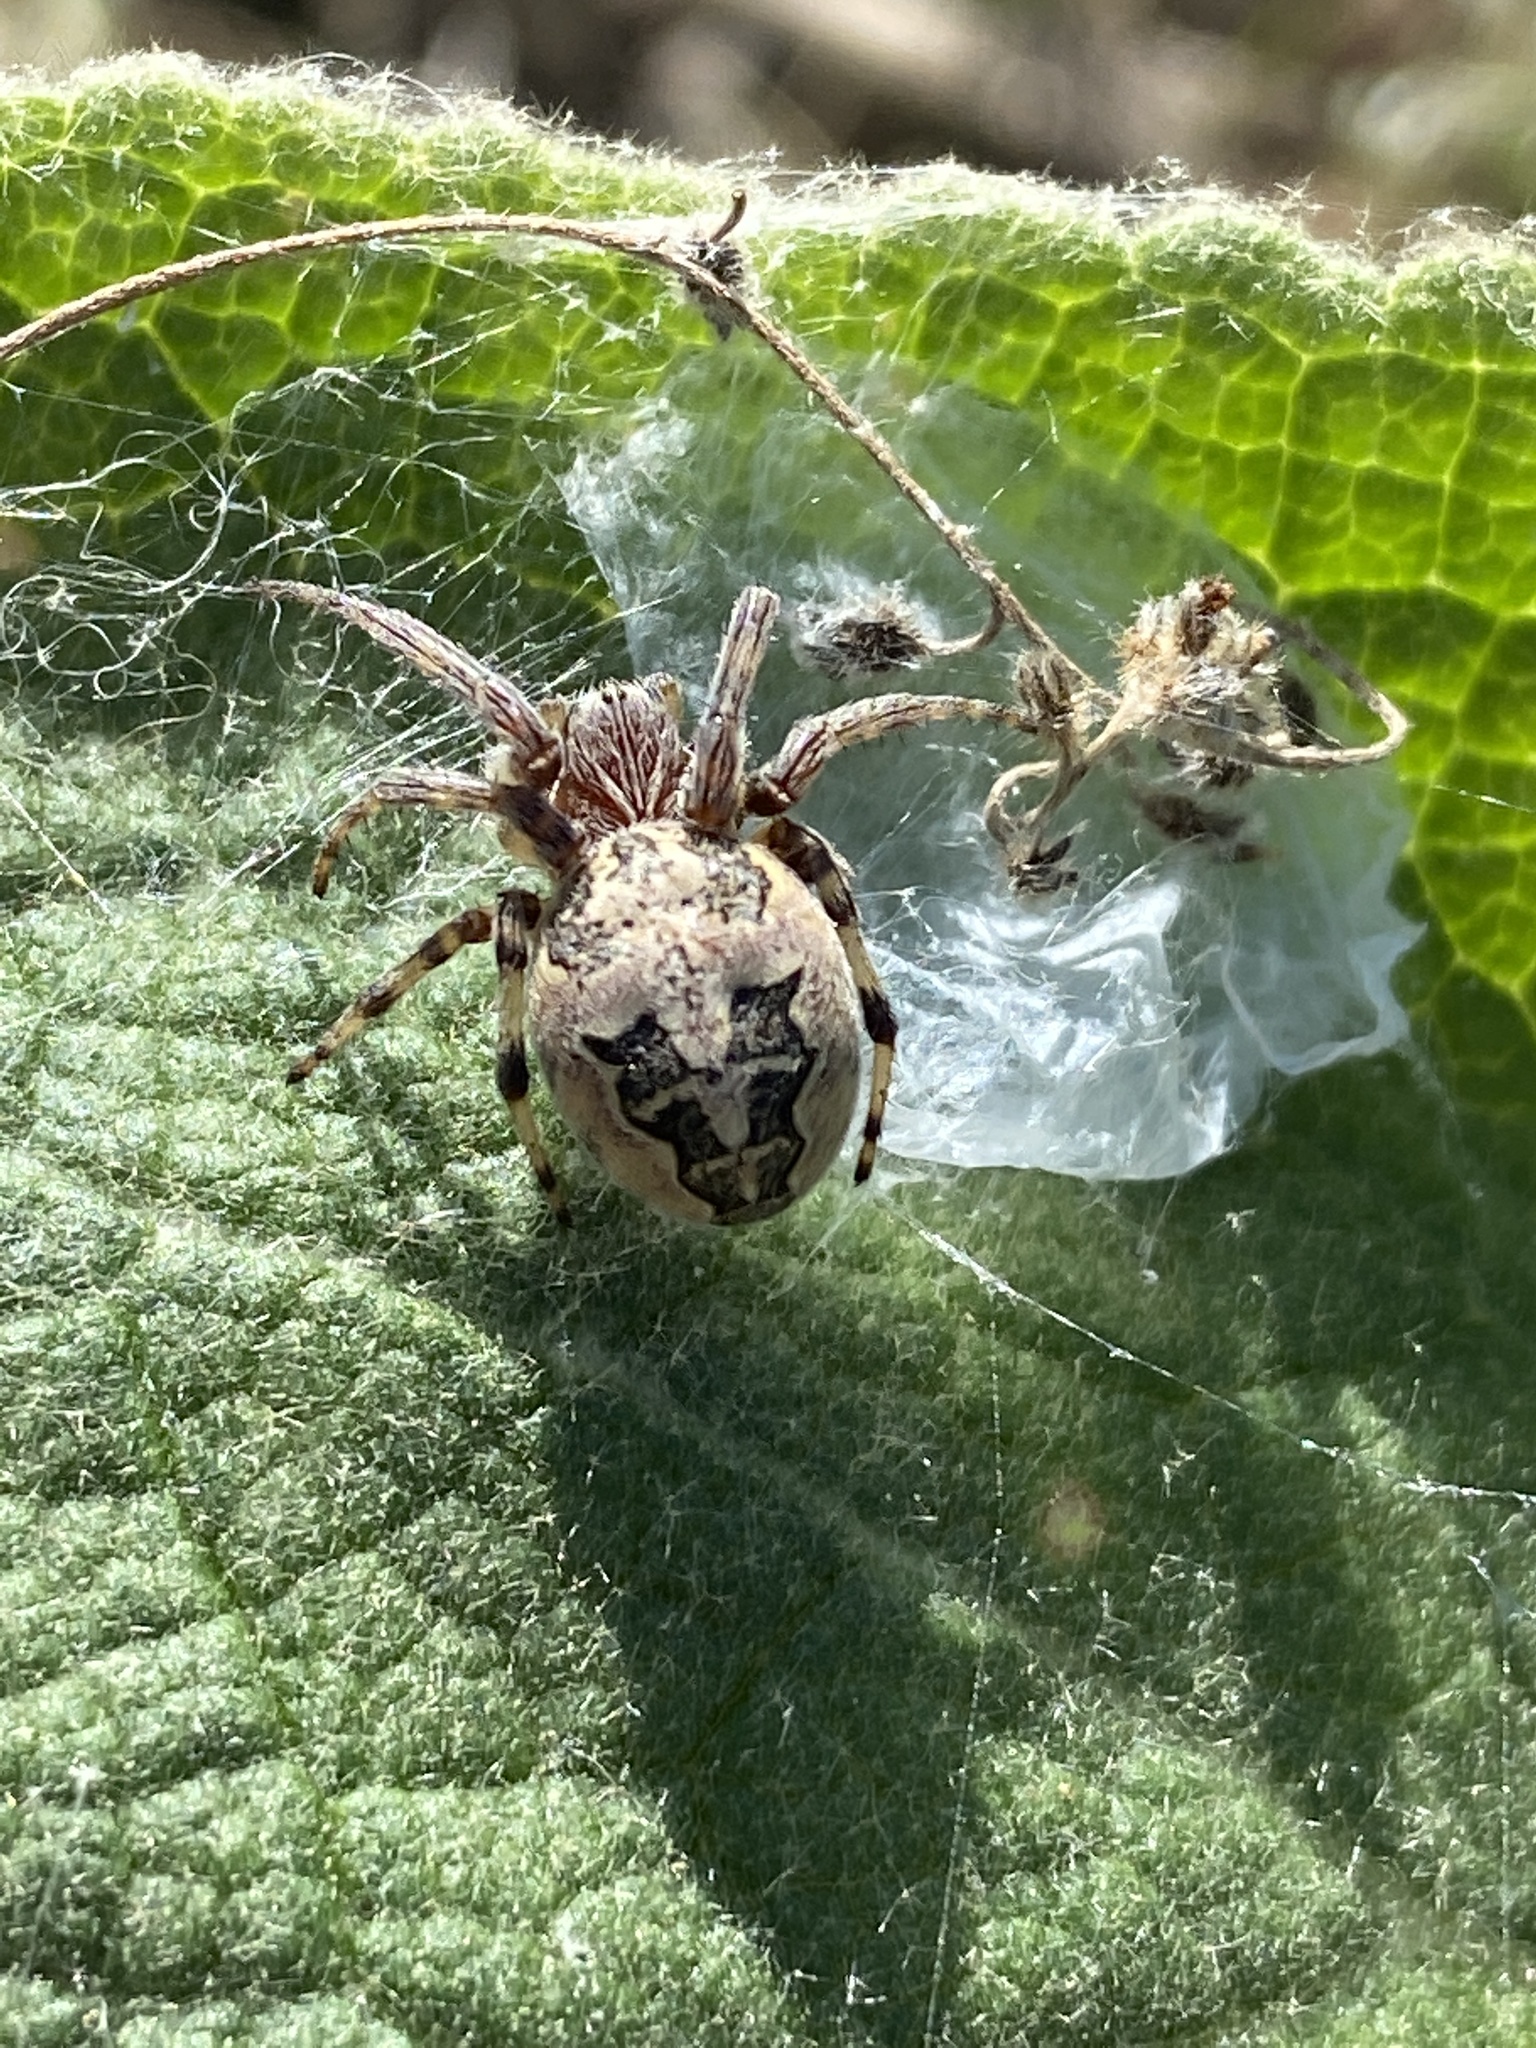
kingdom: Animalia
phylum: Arthropoda
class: Arachnida
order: Araneae
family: Araneidae
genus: Larinioides
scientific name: Larinioides cornutus
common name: Furrow orbweaver
